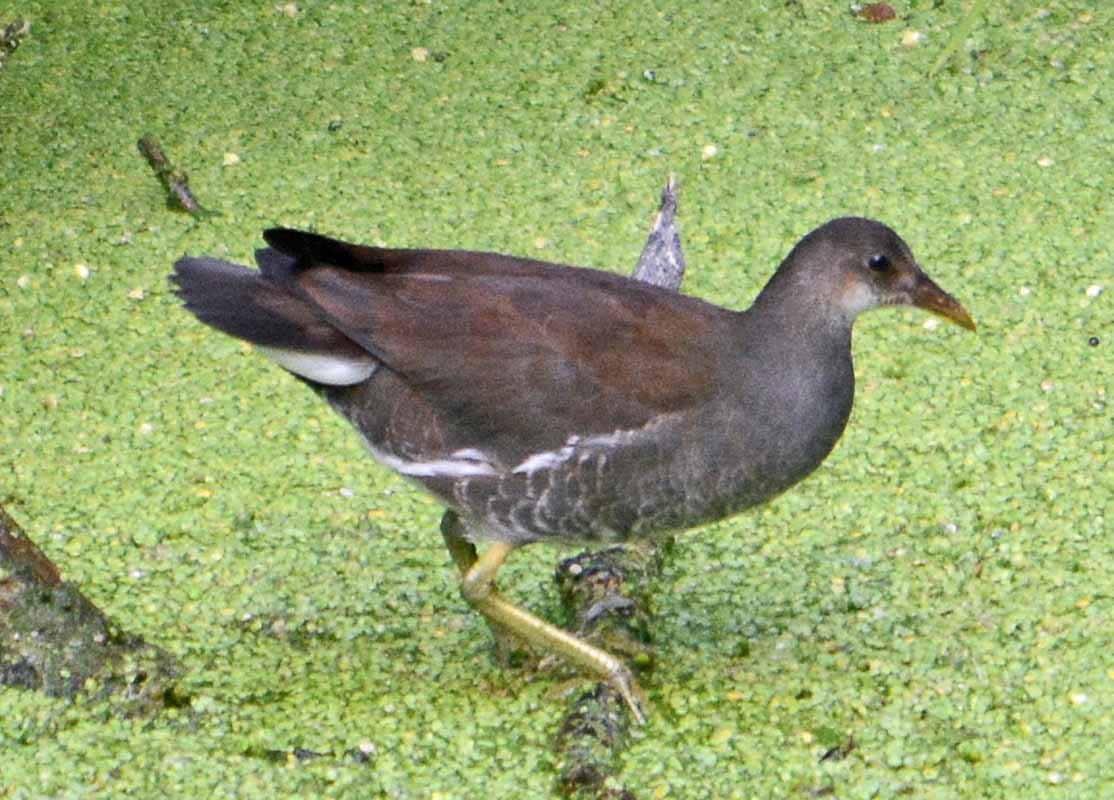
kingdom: Animalia
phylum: Chordata
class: Aves
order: Gruiformes
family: Rallidae
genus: Gallinula
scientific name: Gallinula chloropus
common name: Common moorhen
